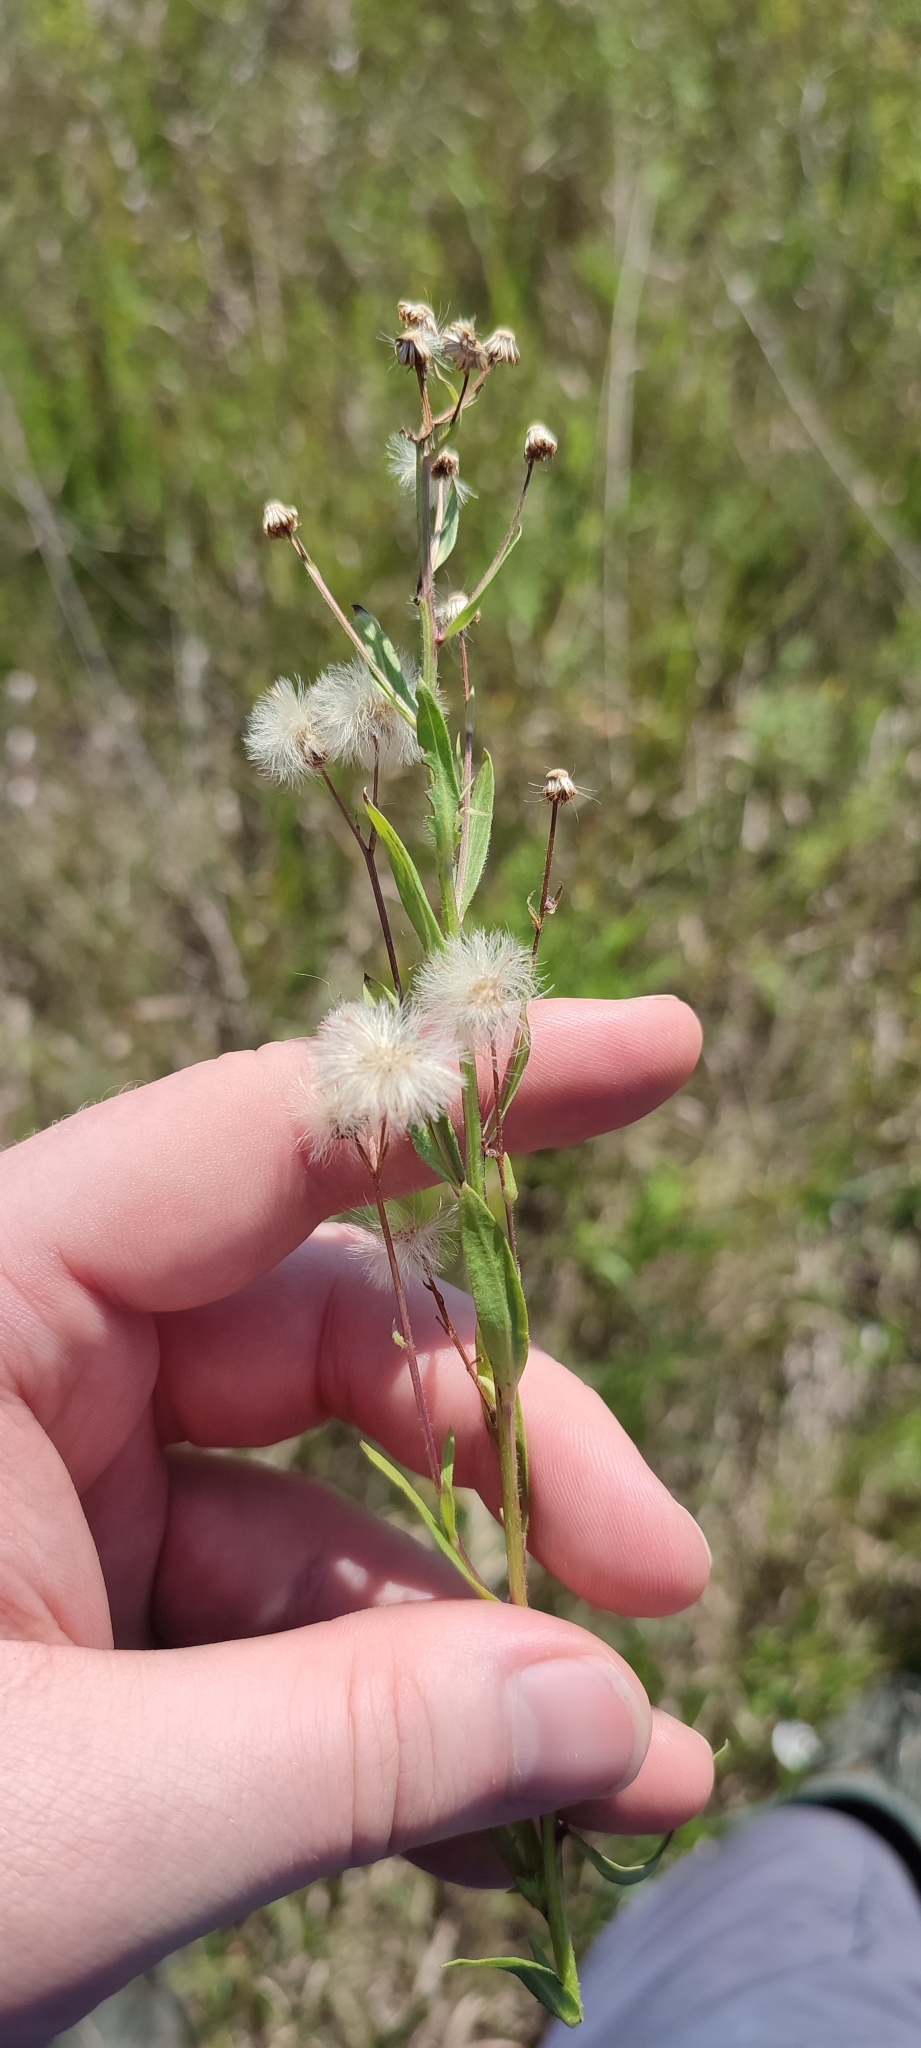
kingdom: Plantae
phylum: Tracheophyta
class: Magnoliopsida
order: Asterales
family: Asteraceae
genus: Erigeron
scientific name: Erigeron acris
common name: Blue fleabane
